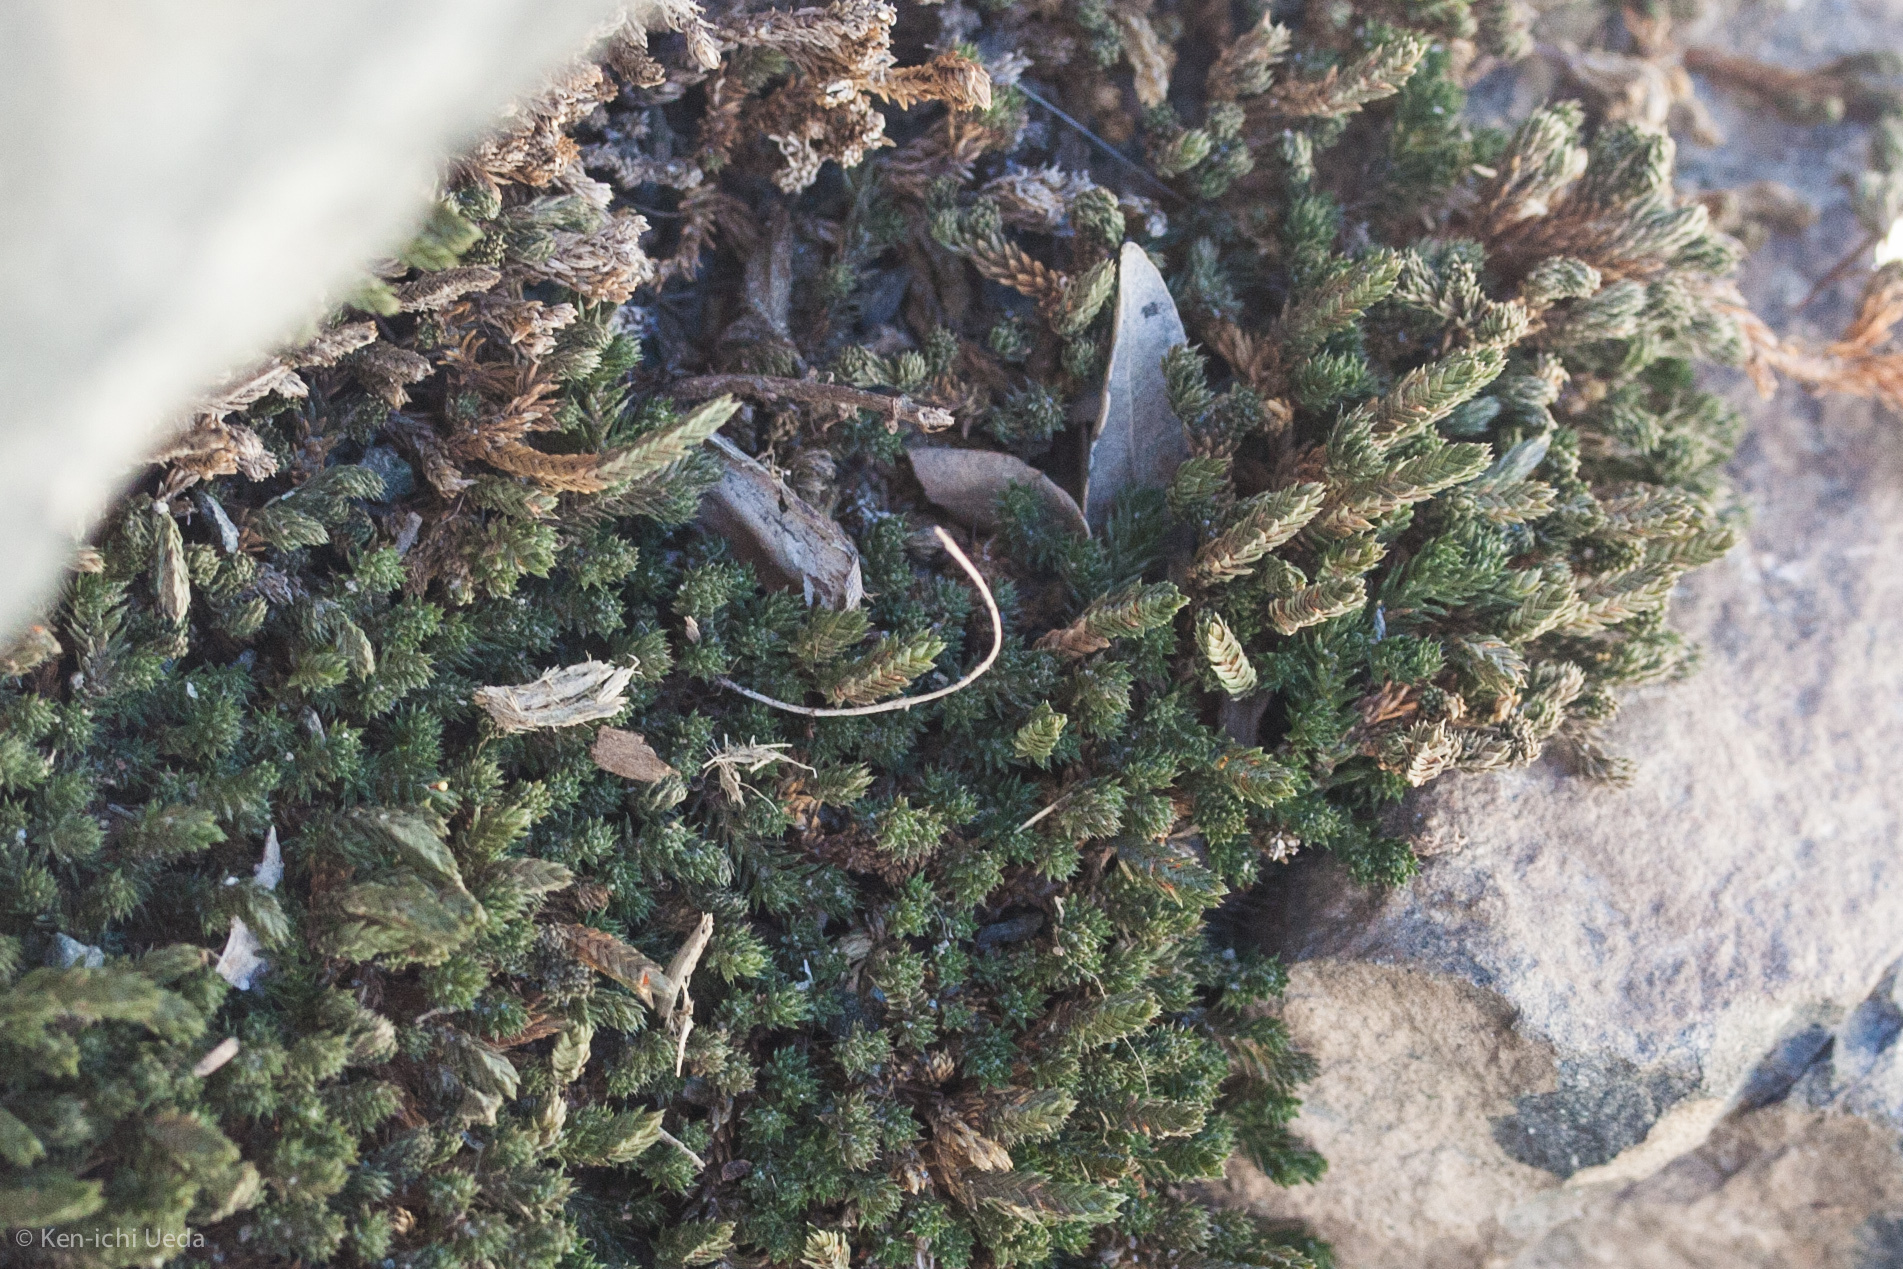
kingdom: Plantae
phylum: Tracheophyta
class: Lycopodiopsida
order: Selaginellales
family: Selaginellaceae
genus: Selaginella
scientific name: Selaginella watsonii
